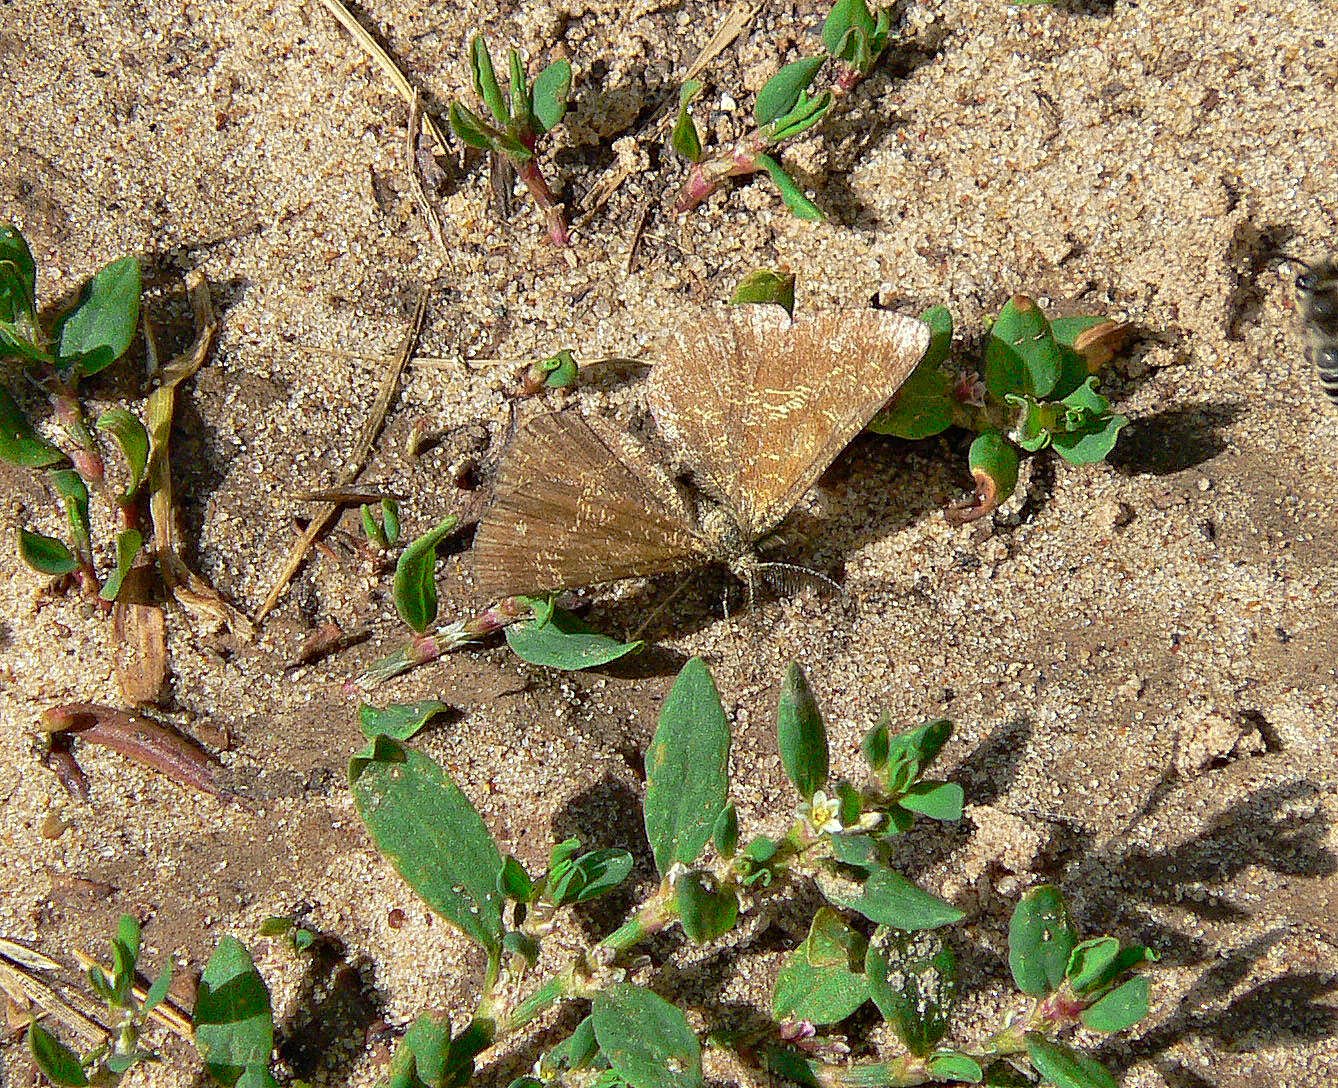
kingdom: Animalia
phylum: Arthropoda
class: Insecta
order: Lepidoptera
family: Geometridae
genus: Ematurga
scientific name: Ematurga atomaria
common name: Common heath
